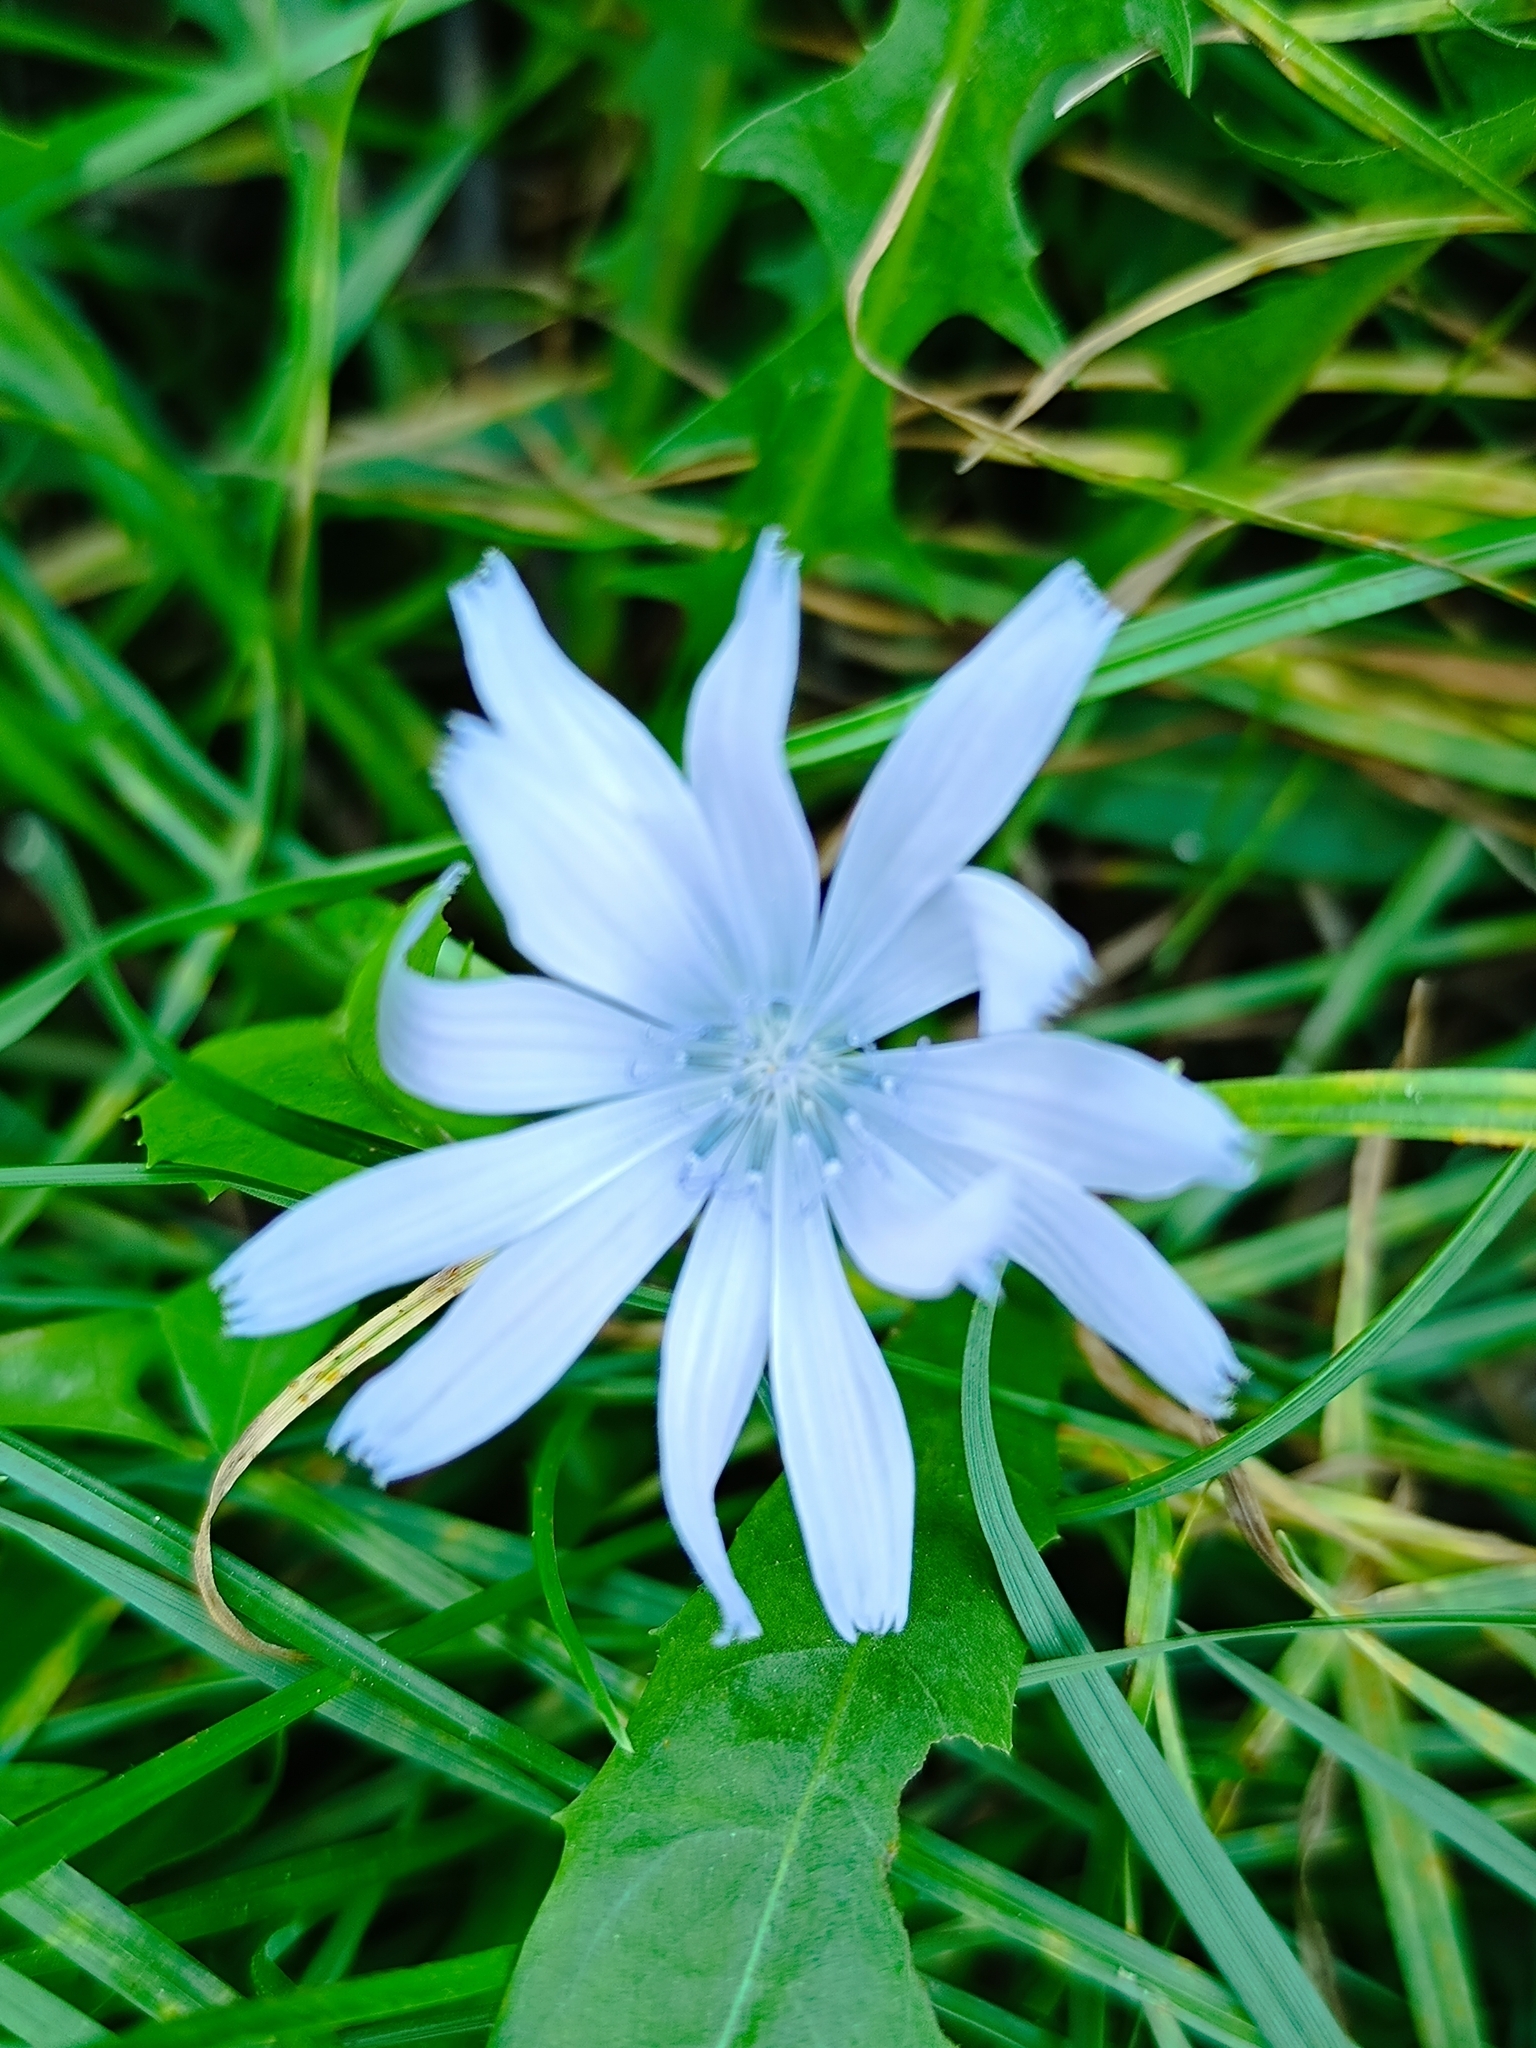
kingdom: Plantae
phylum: Tracheophyta
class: Magnoliopsida
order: Asterales
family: Asteraceae
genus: Cichorium
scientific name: Cichorium intybus
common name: Chicory
